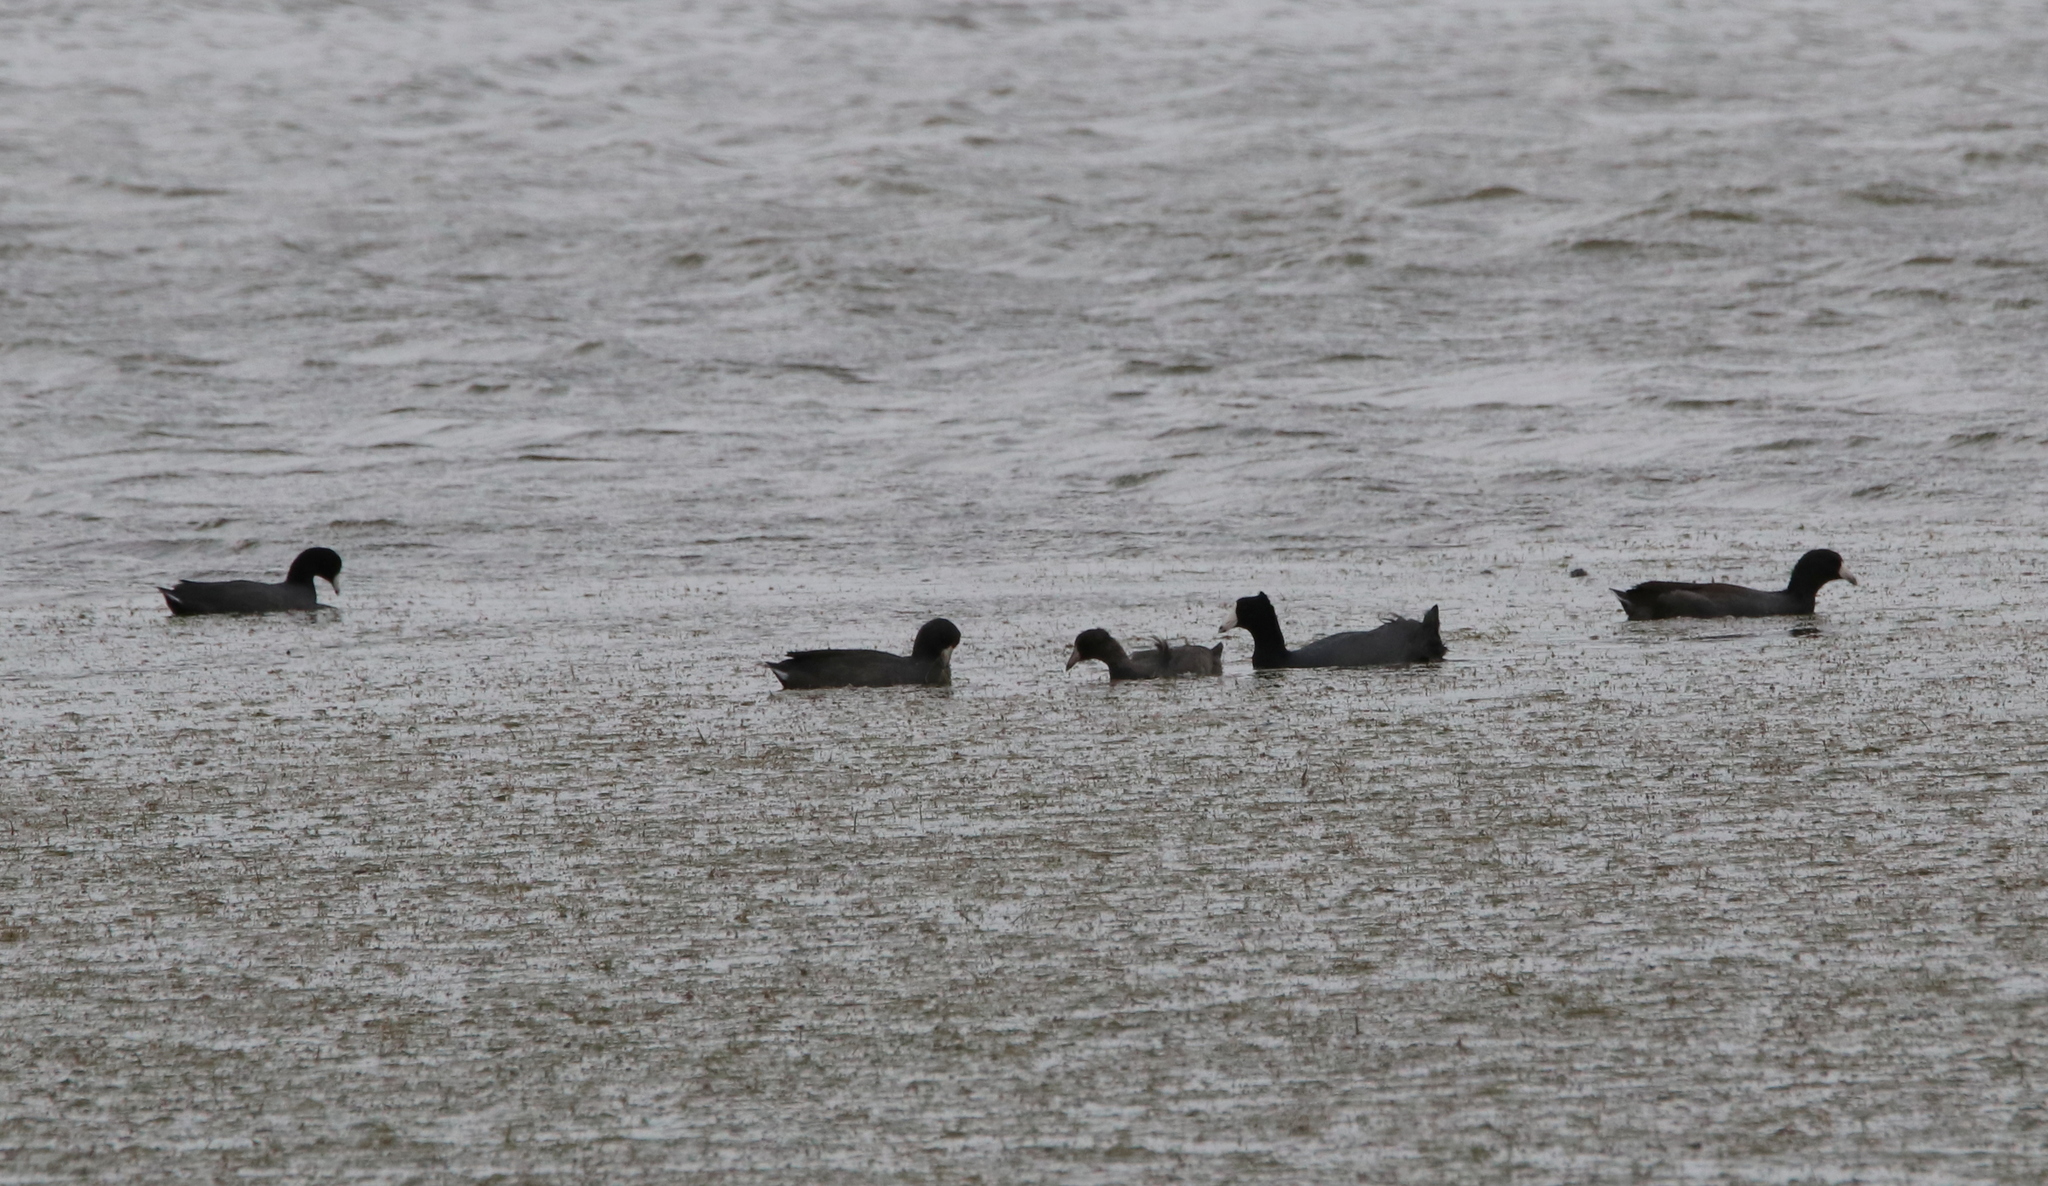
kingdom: Animalia
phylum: Chordata
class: Aves
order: Gruiformes
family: Rallidae
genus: Fulica
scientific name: Fulica americana
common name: American coot
